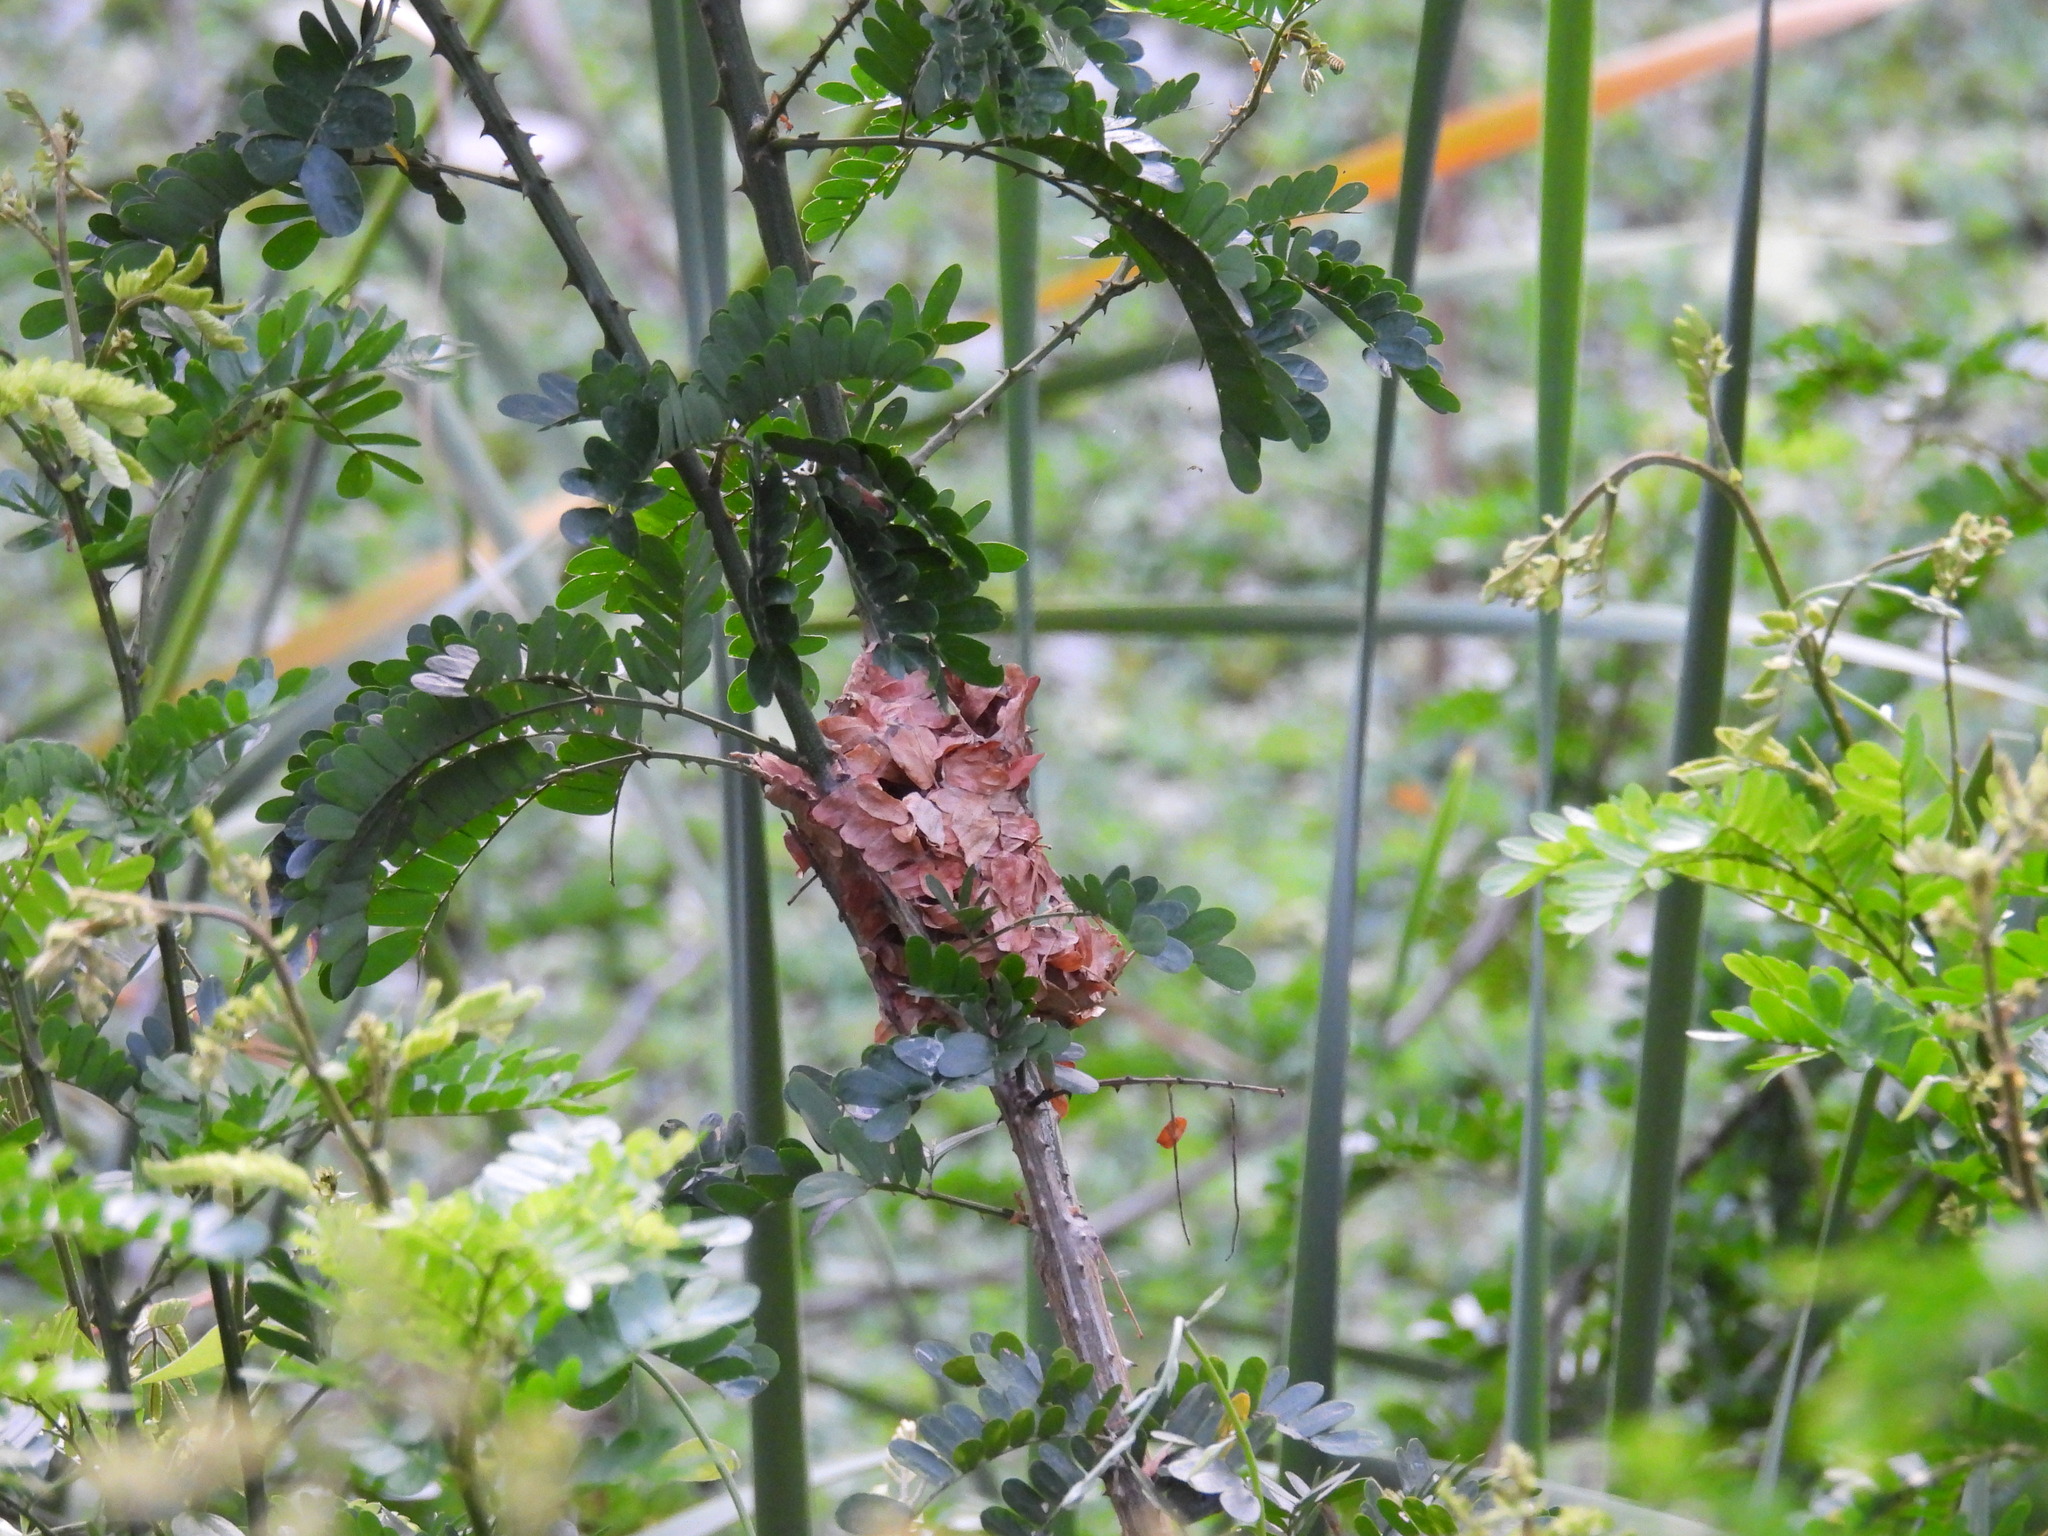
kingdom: Animalia
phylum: Arthropoda
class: Insecta
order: Hymenoptera
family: Formicidae
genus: Oecophylla
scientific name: Oecophylla smaragdina
